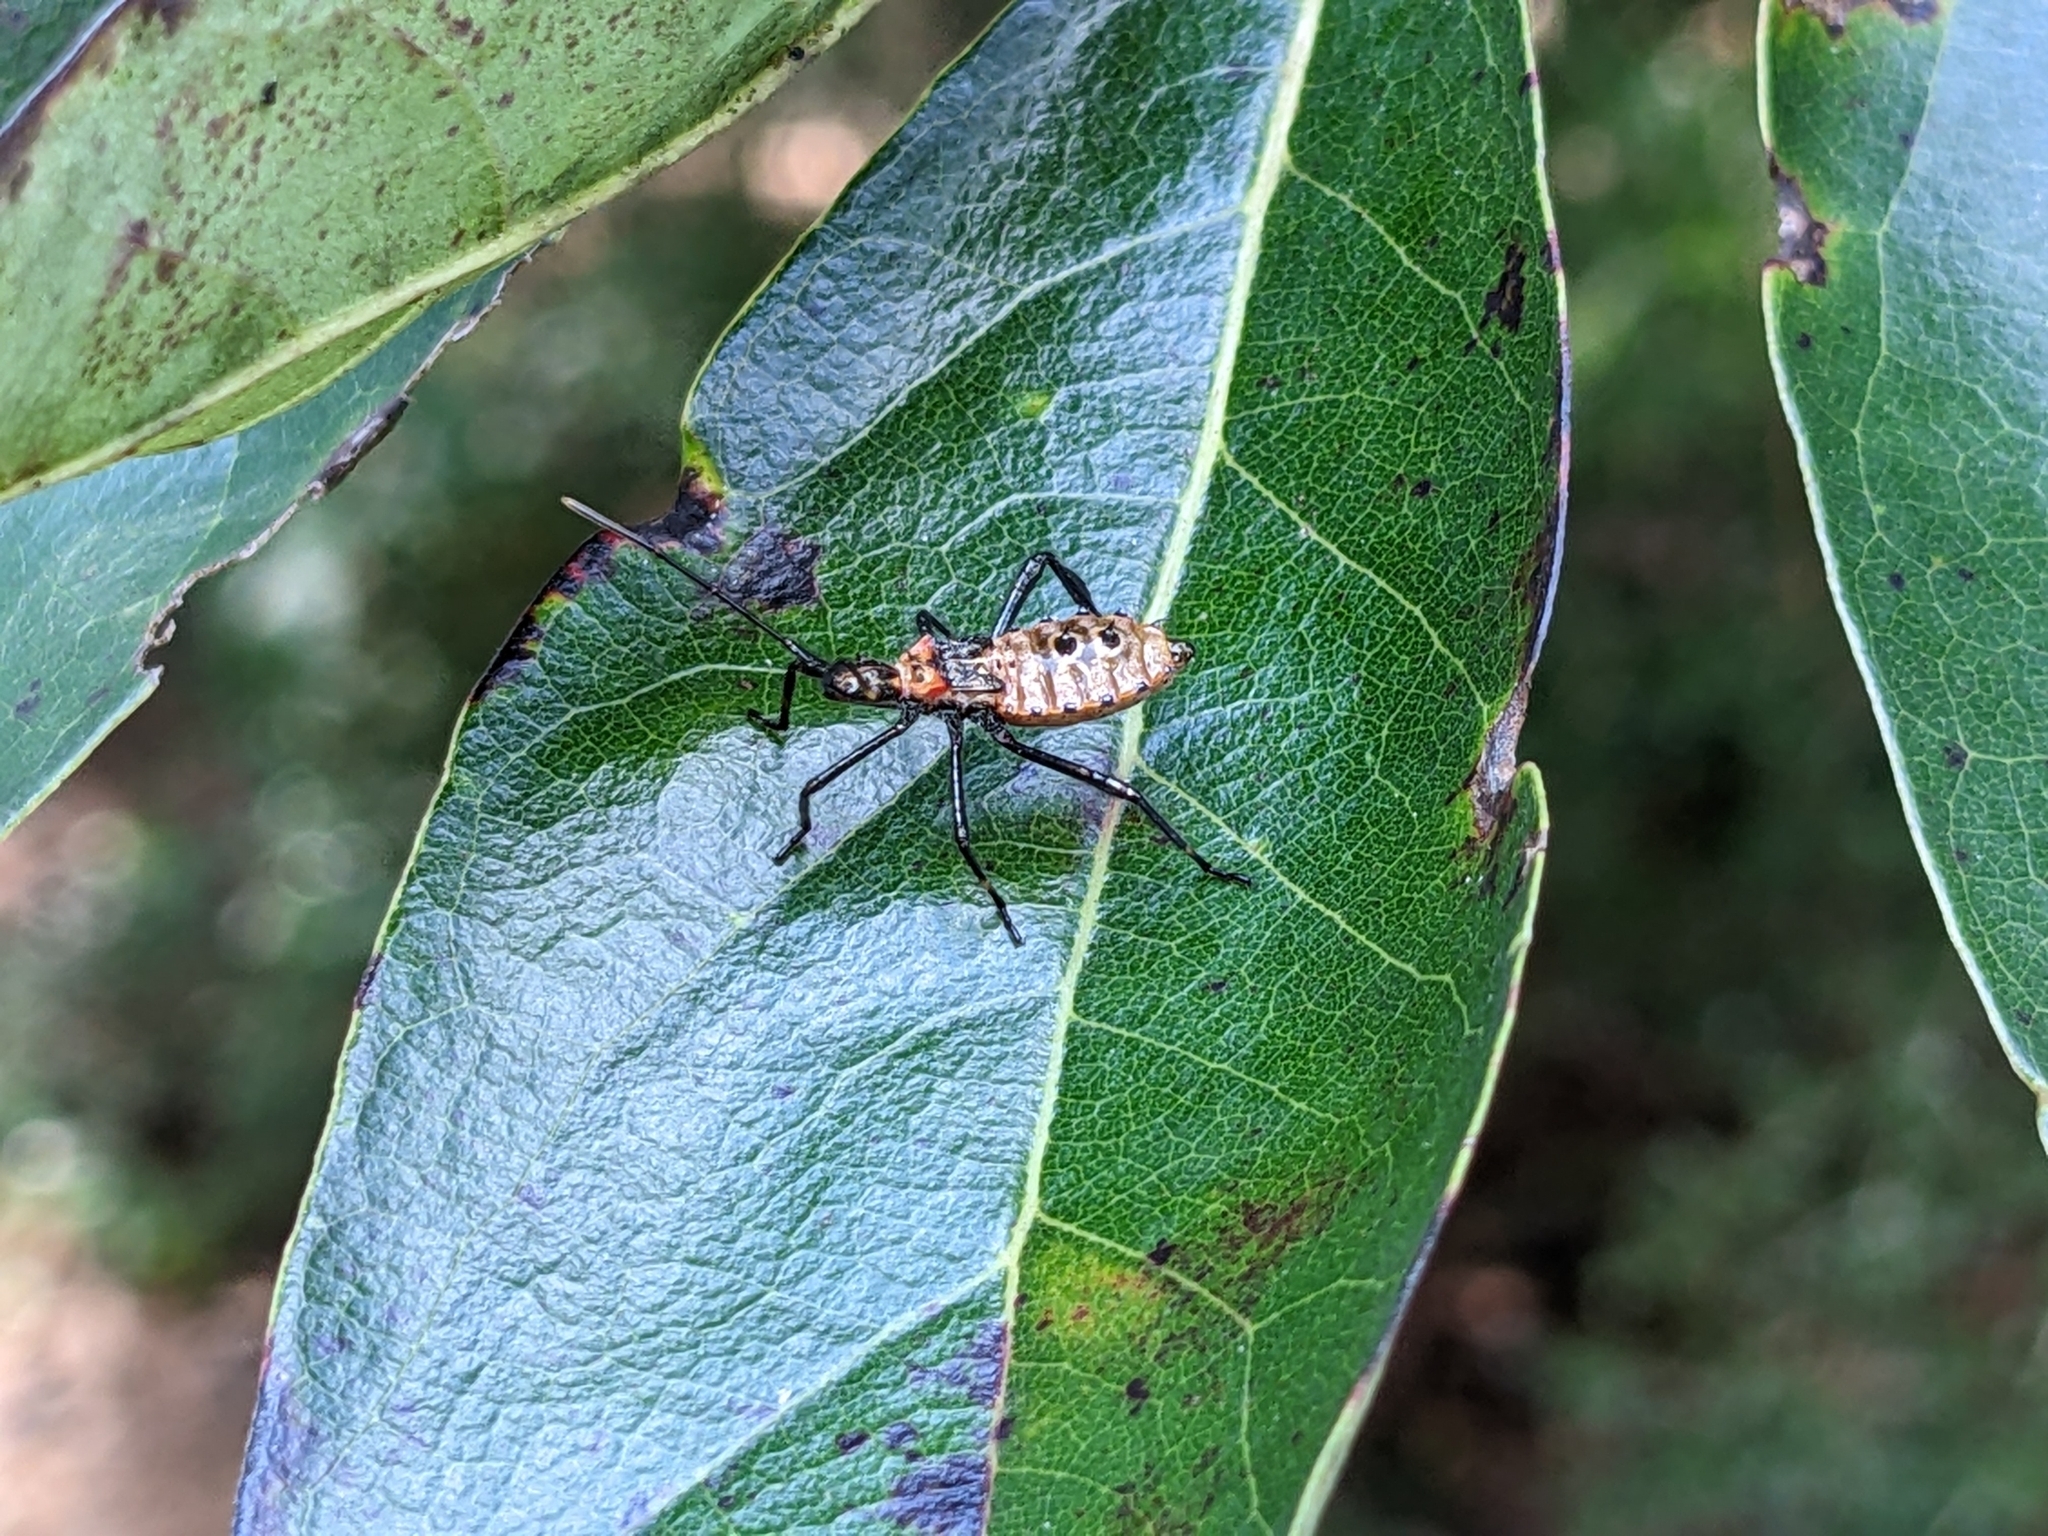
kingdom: Animalia
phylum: Arthropoda
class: Insecta
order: Hemiptera
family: Coreidae
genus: Leptoglossus
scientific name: Leptoglossus oppositus
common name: Northern leaf-footed bug
